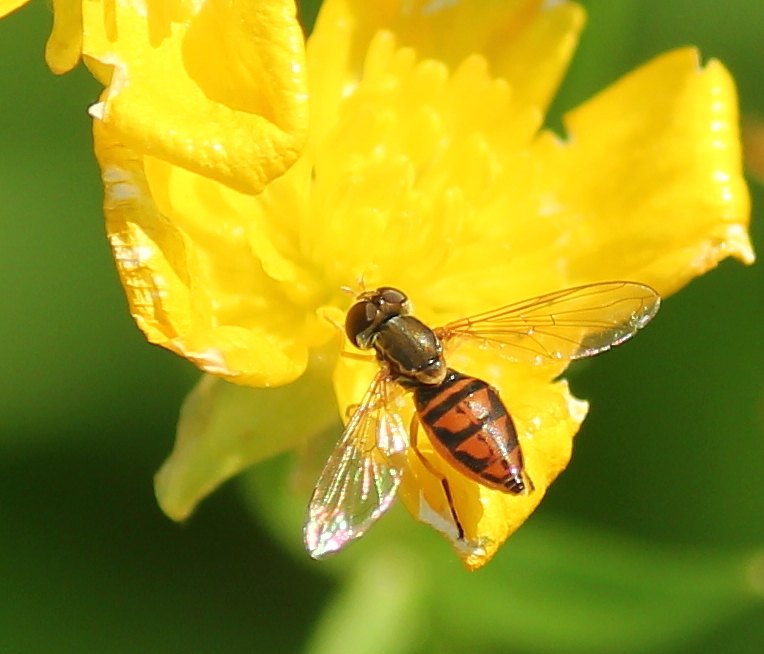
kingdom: Animalia
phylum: Arthropoda
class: Insecta
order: Diptera
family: Syrphidae
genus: Toxomerus
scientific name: Toxomerus marginatus
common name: Syrphid fly
